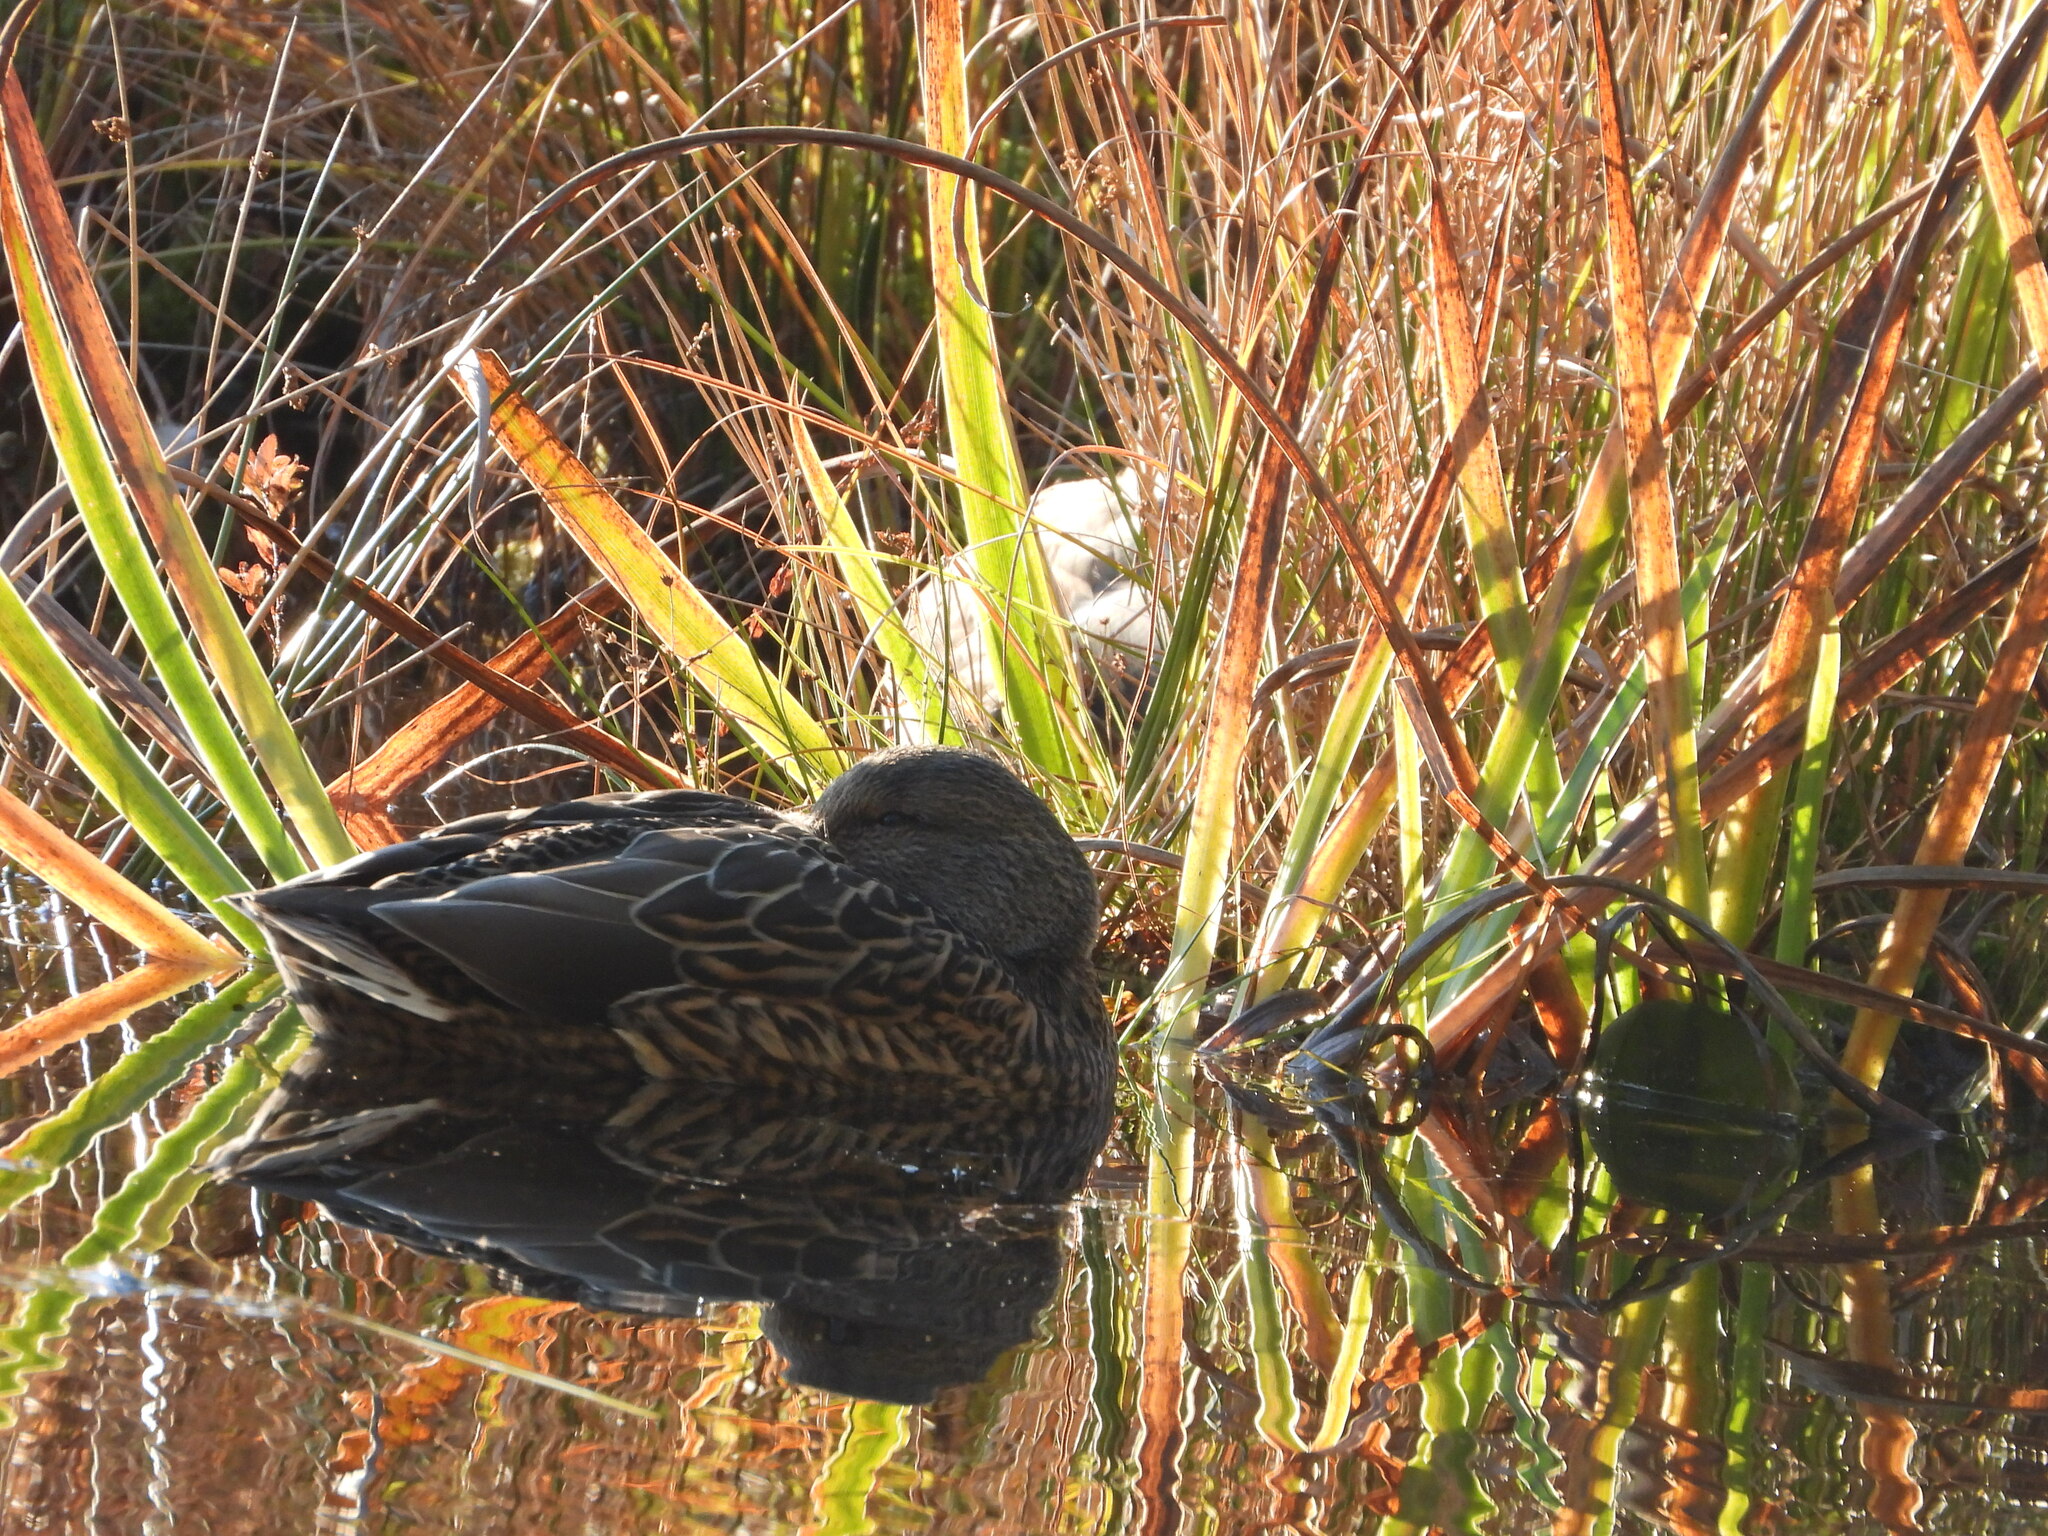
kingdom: Animalia
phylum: Chordata
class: Aves
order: Anseriformes
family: Anatidae
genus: Anas
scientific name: Anas platyrhynchos
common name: Mallard
